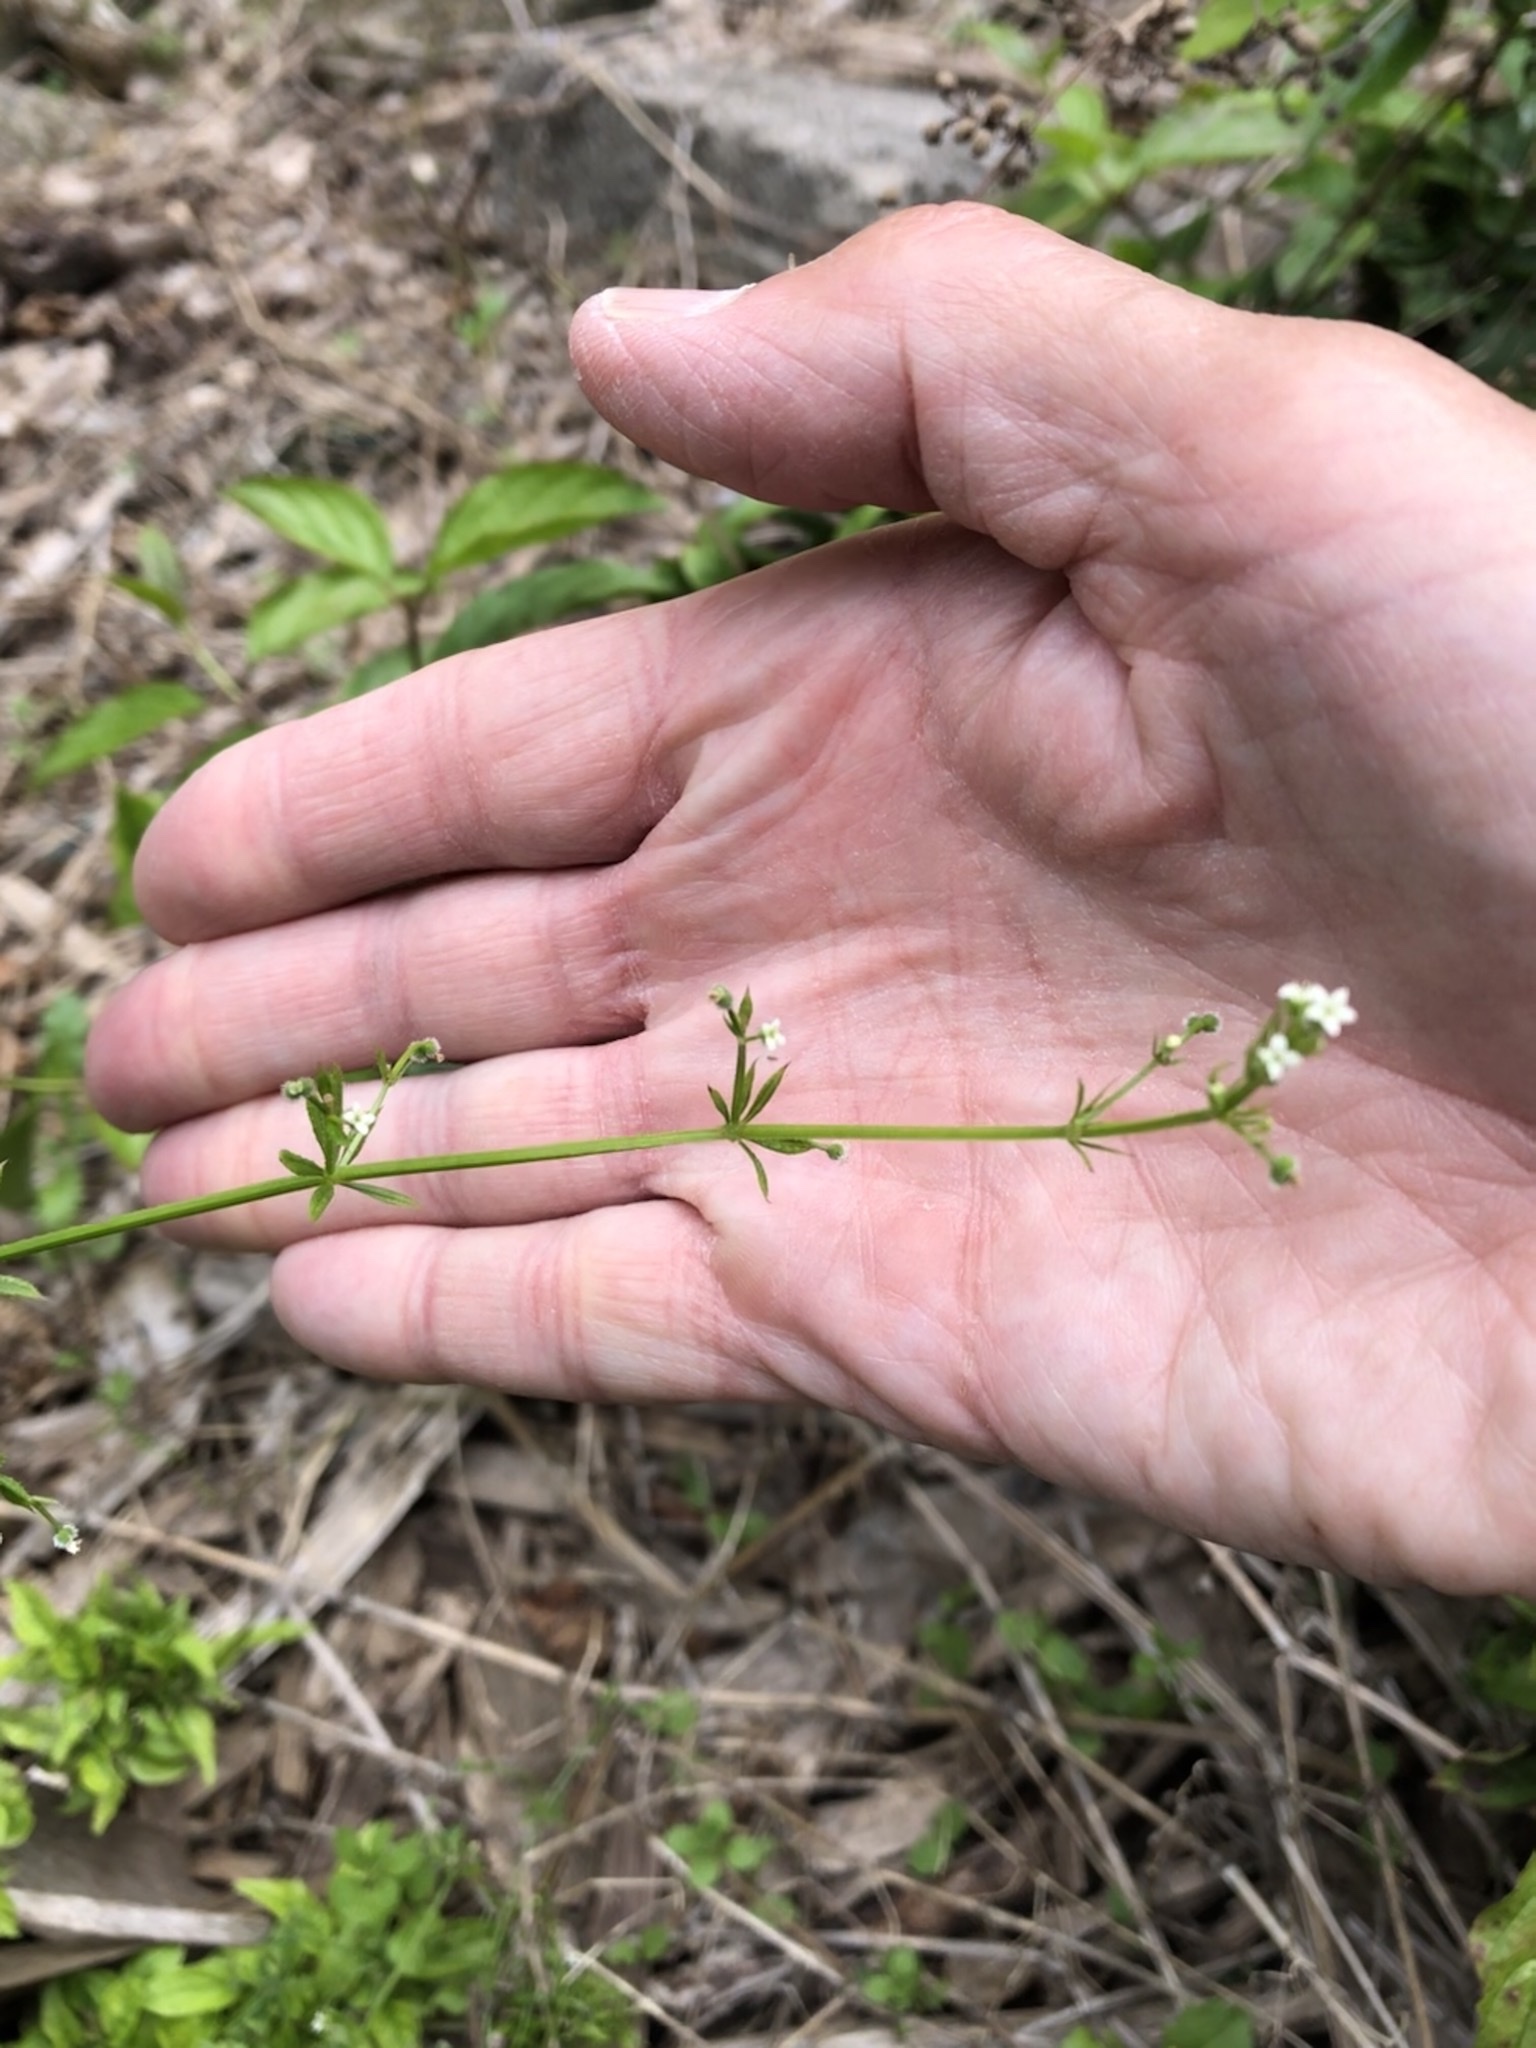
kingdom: Plantae
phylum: Tracheophyta
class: Magnoliopsida
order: Gentianales
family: Rubiaceae
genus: Galium
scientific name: Galium aparine
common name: Cleavers
